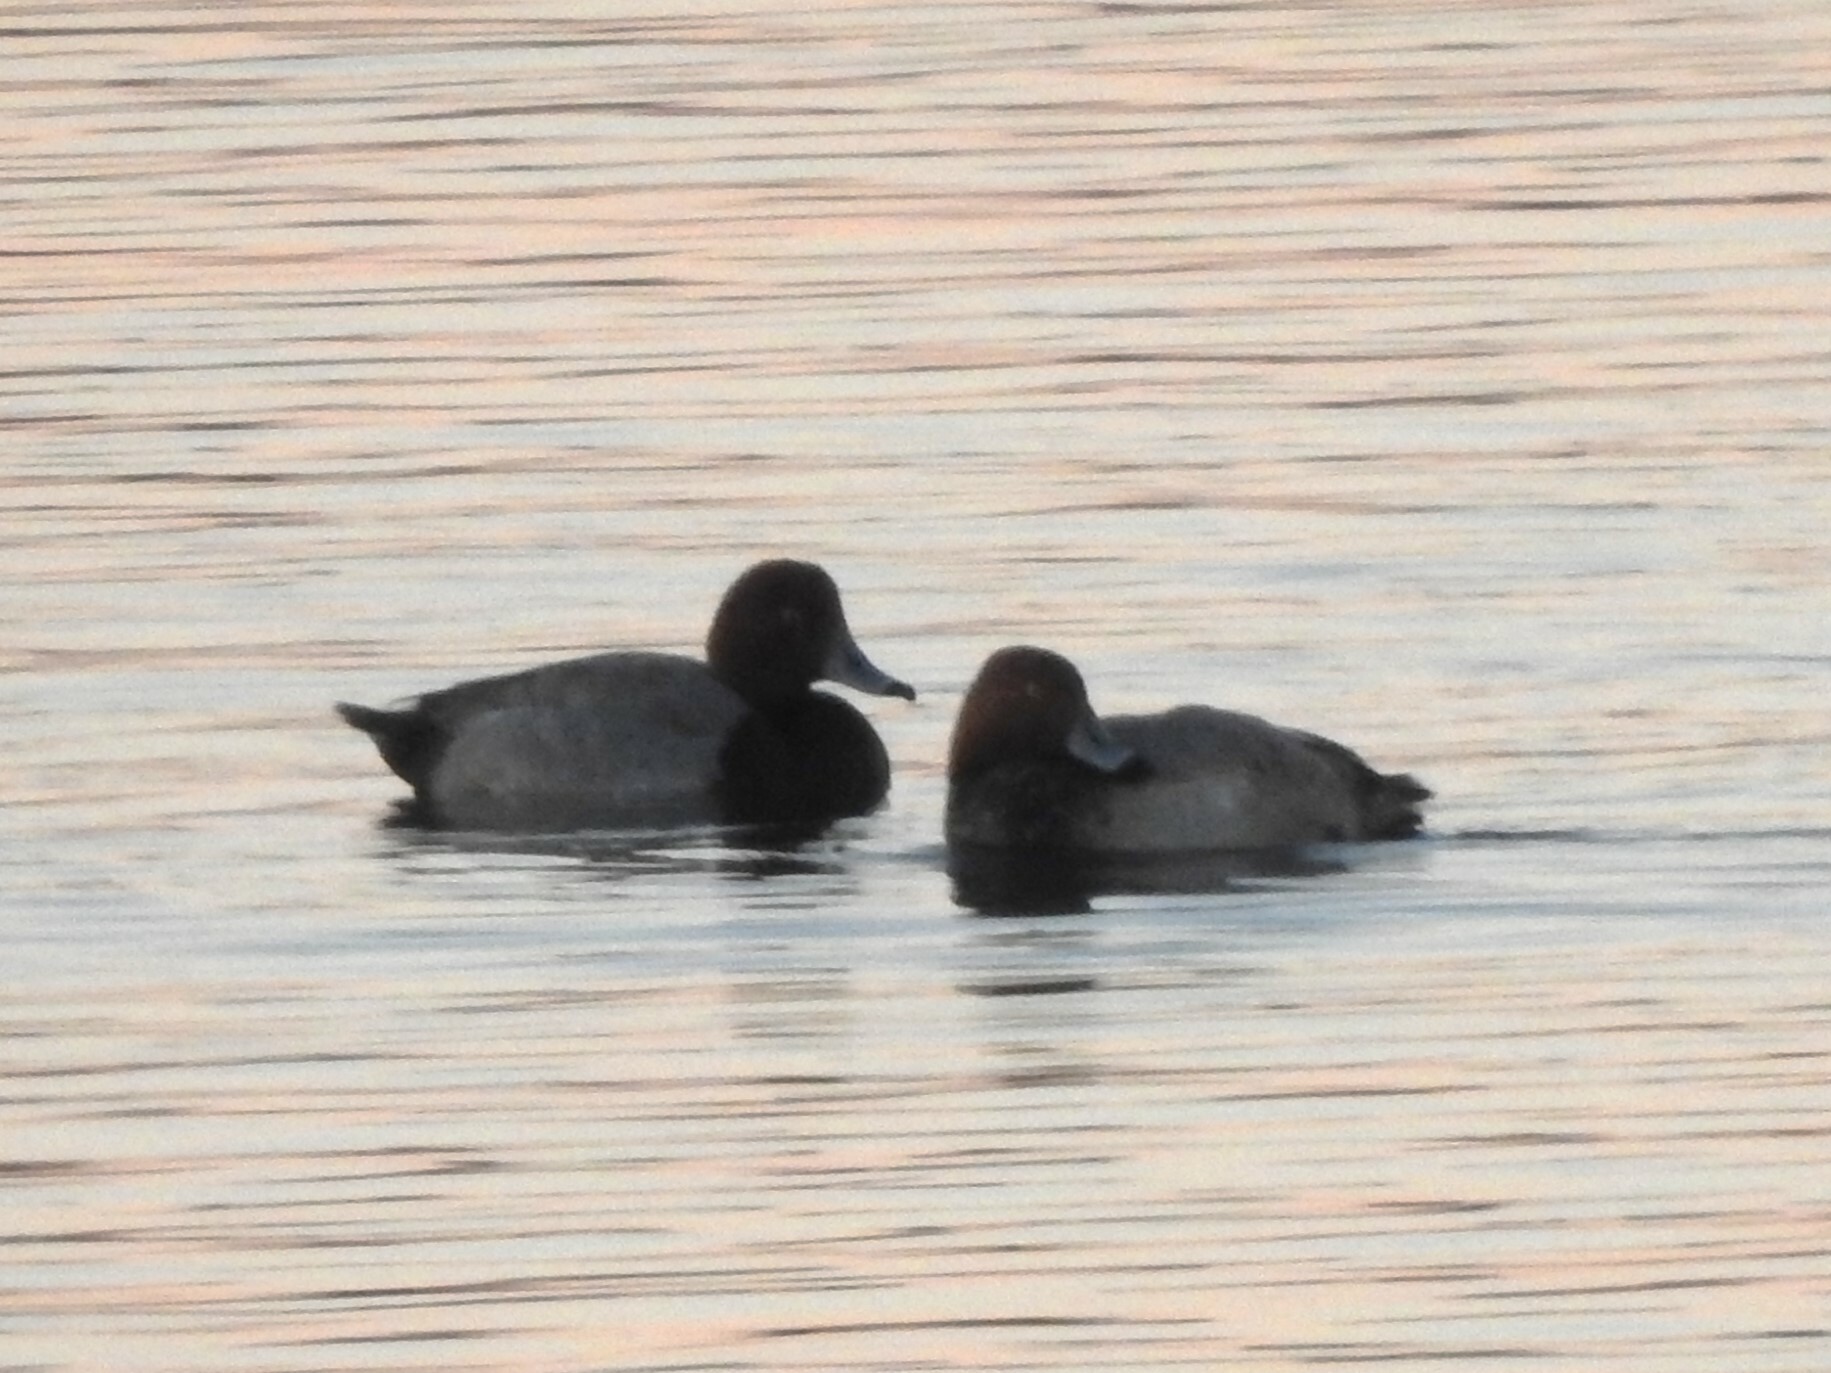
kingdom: Animalia
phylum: Chordata
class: Aves
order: Anseriformes
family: Anatidae
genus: Aythya
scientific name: Aythya americana
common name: Redhead
